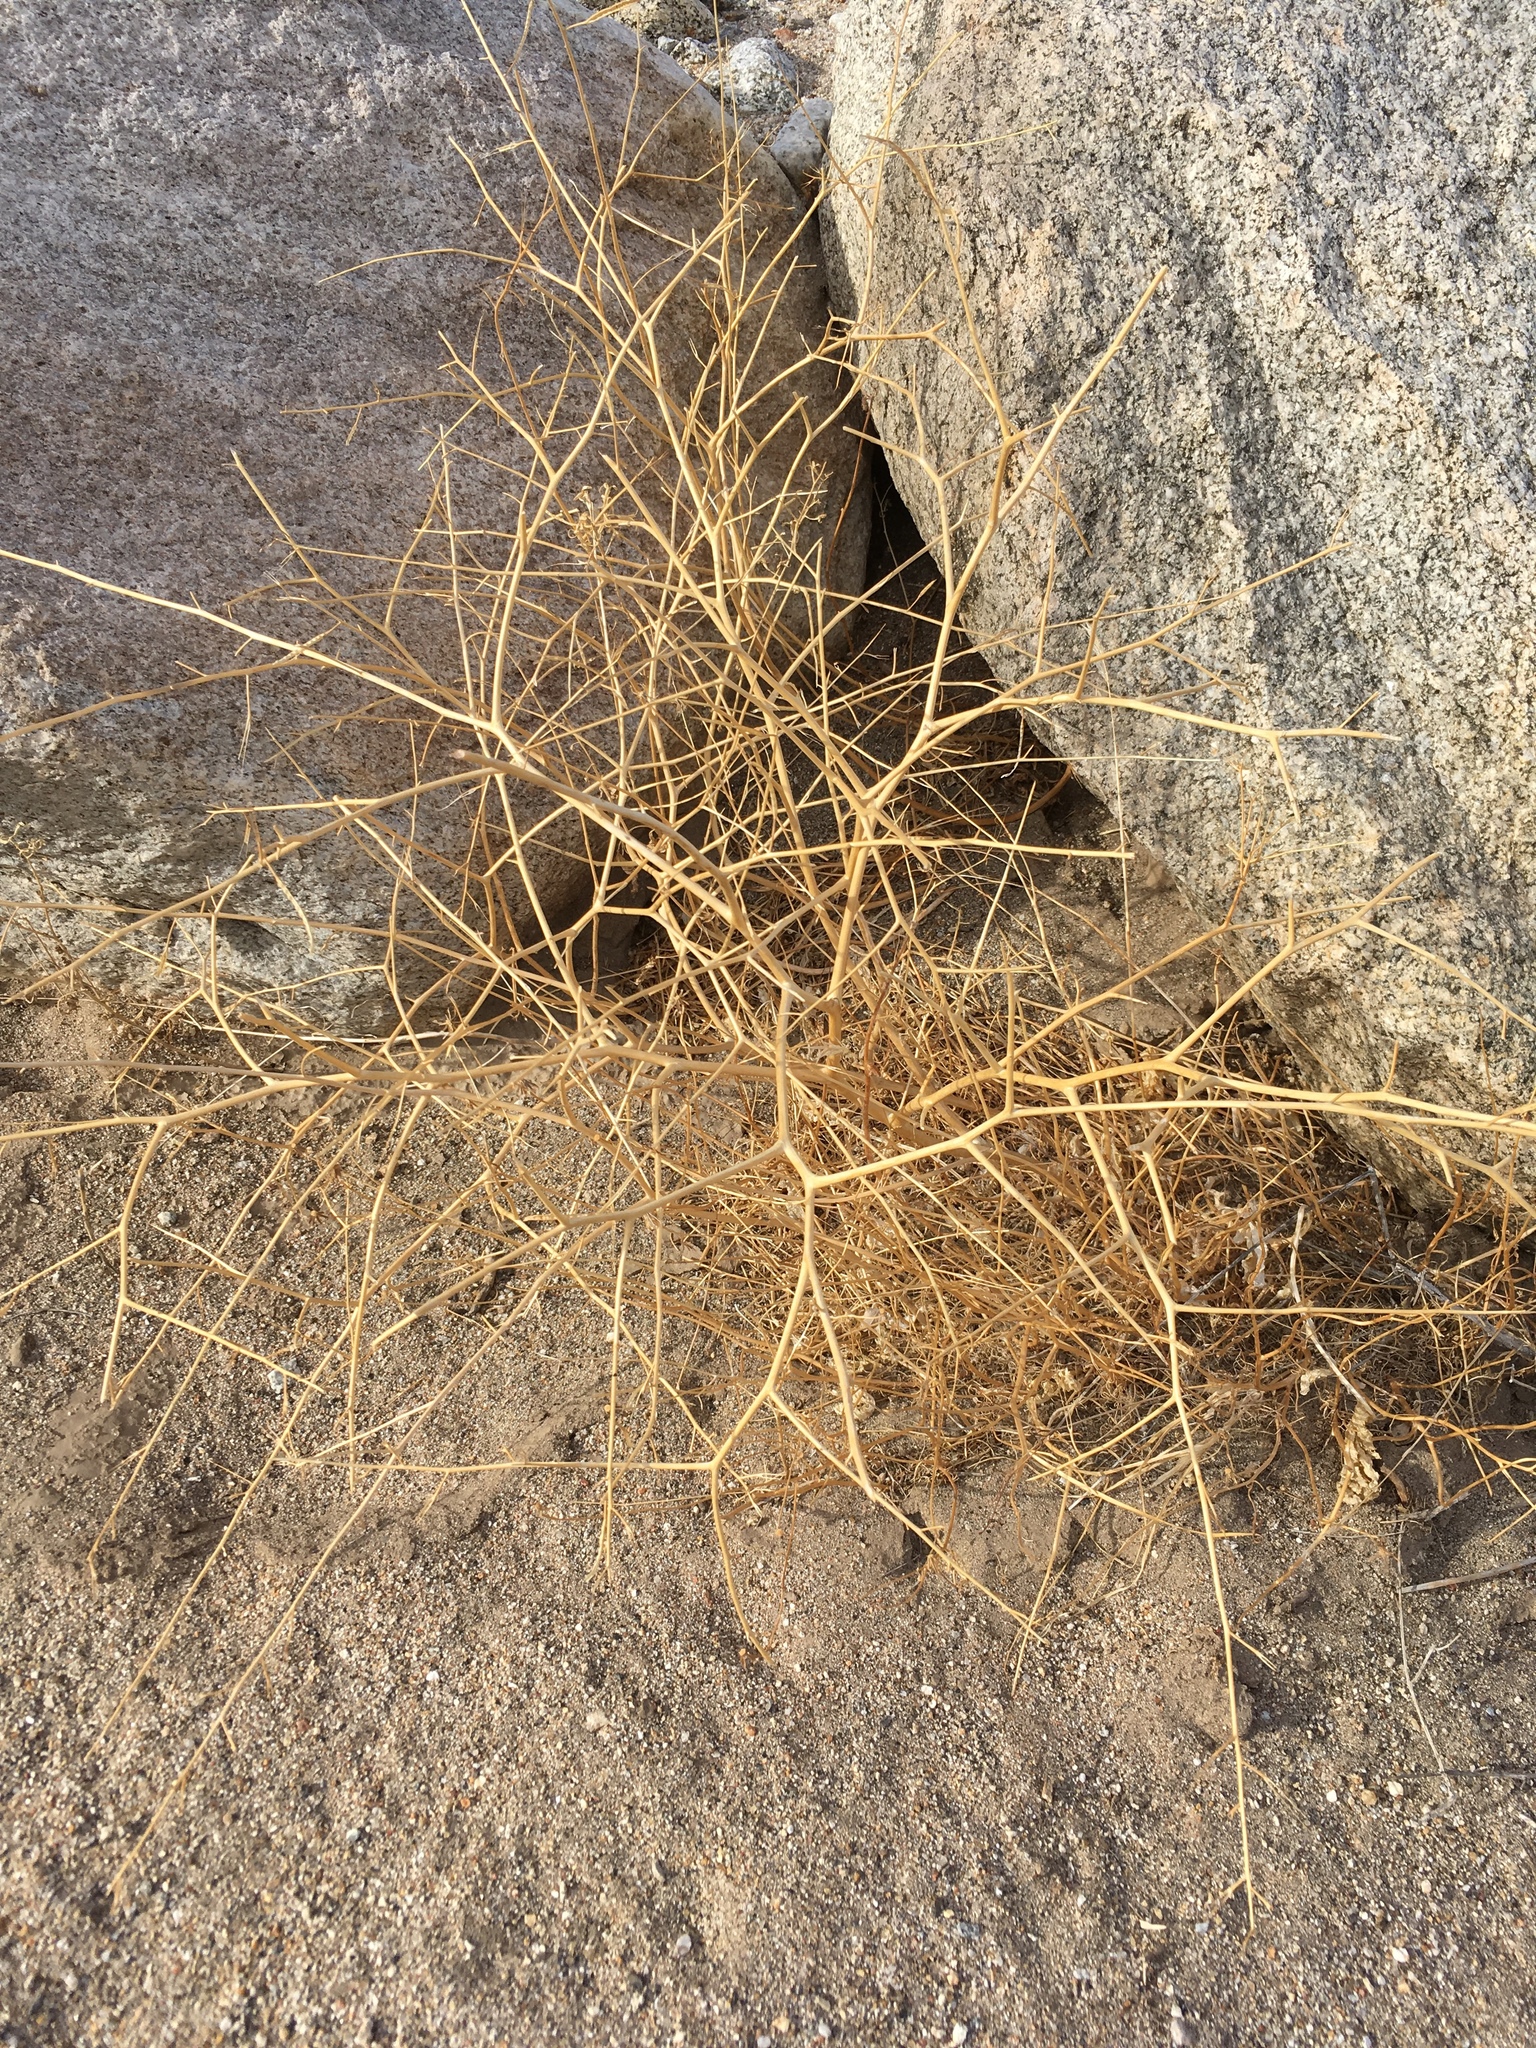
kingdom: Plantae
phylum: Tracheophyta
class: Magnoliopsida
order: Brassicales
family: Brassicaceae
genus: Brassica
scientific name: Brassica tournefortii
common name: Pale cabbage
